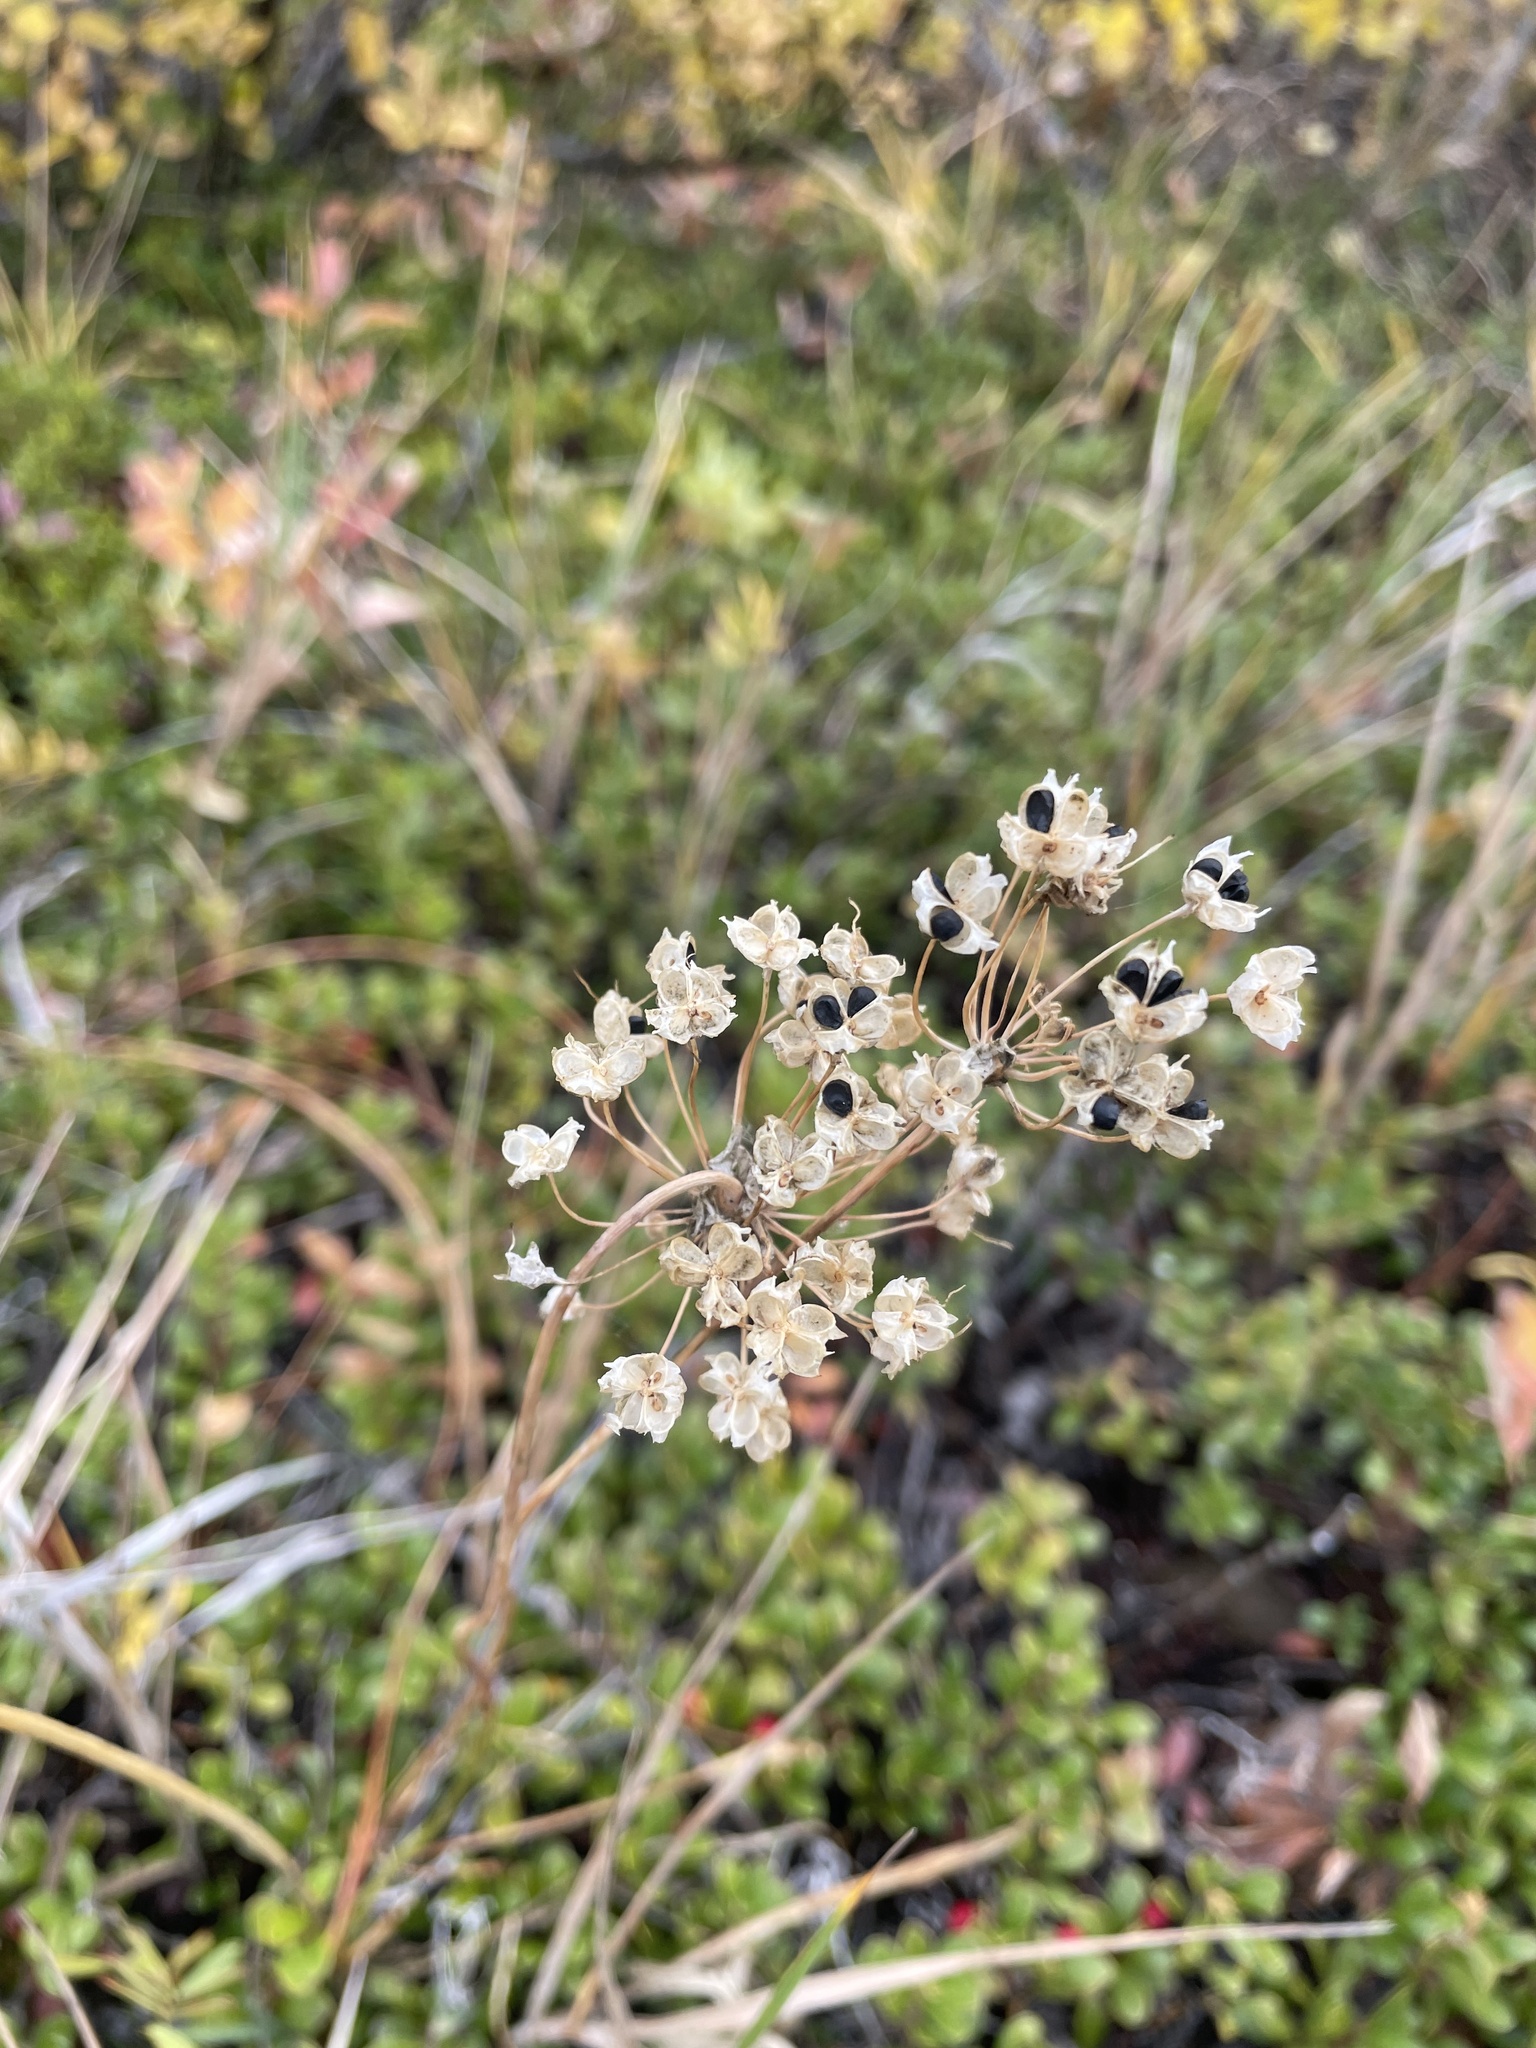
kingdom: Plantae
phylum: Tracheophyta
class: Liliopsida
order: Asparagales
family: Amaryllidaceae
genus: Allium
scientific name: Allium cernuum
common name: Nodding onion
